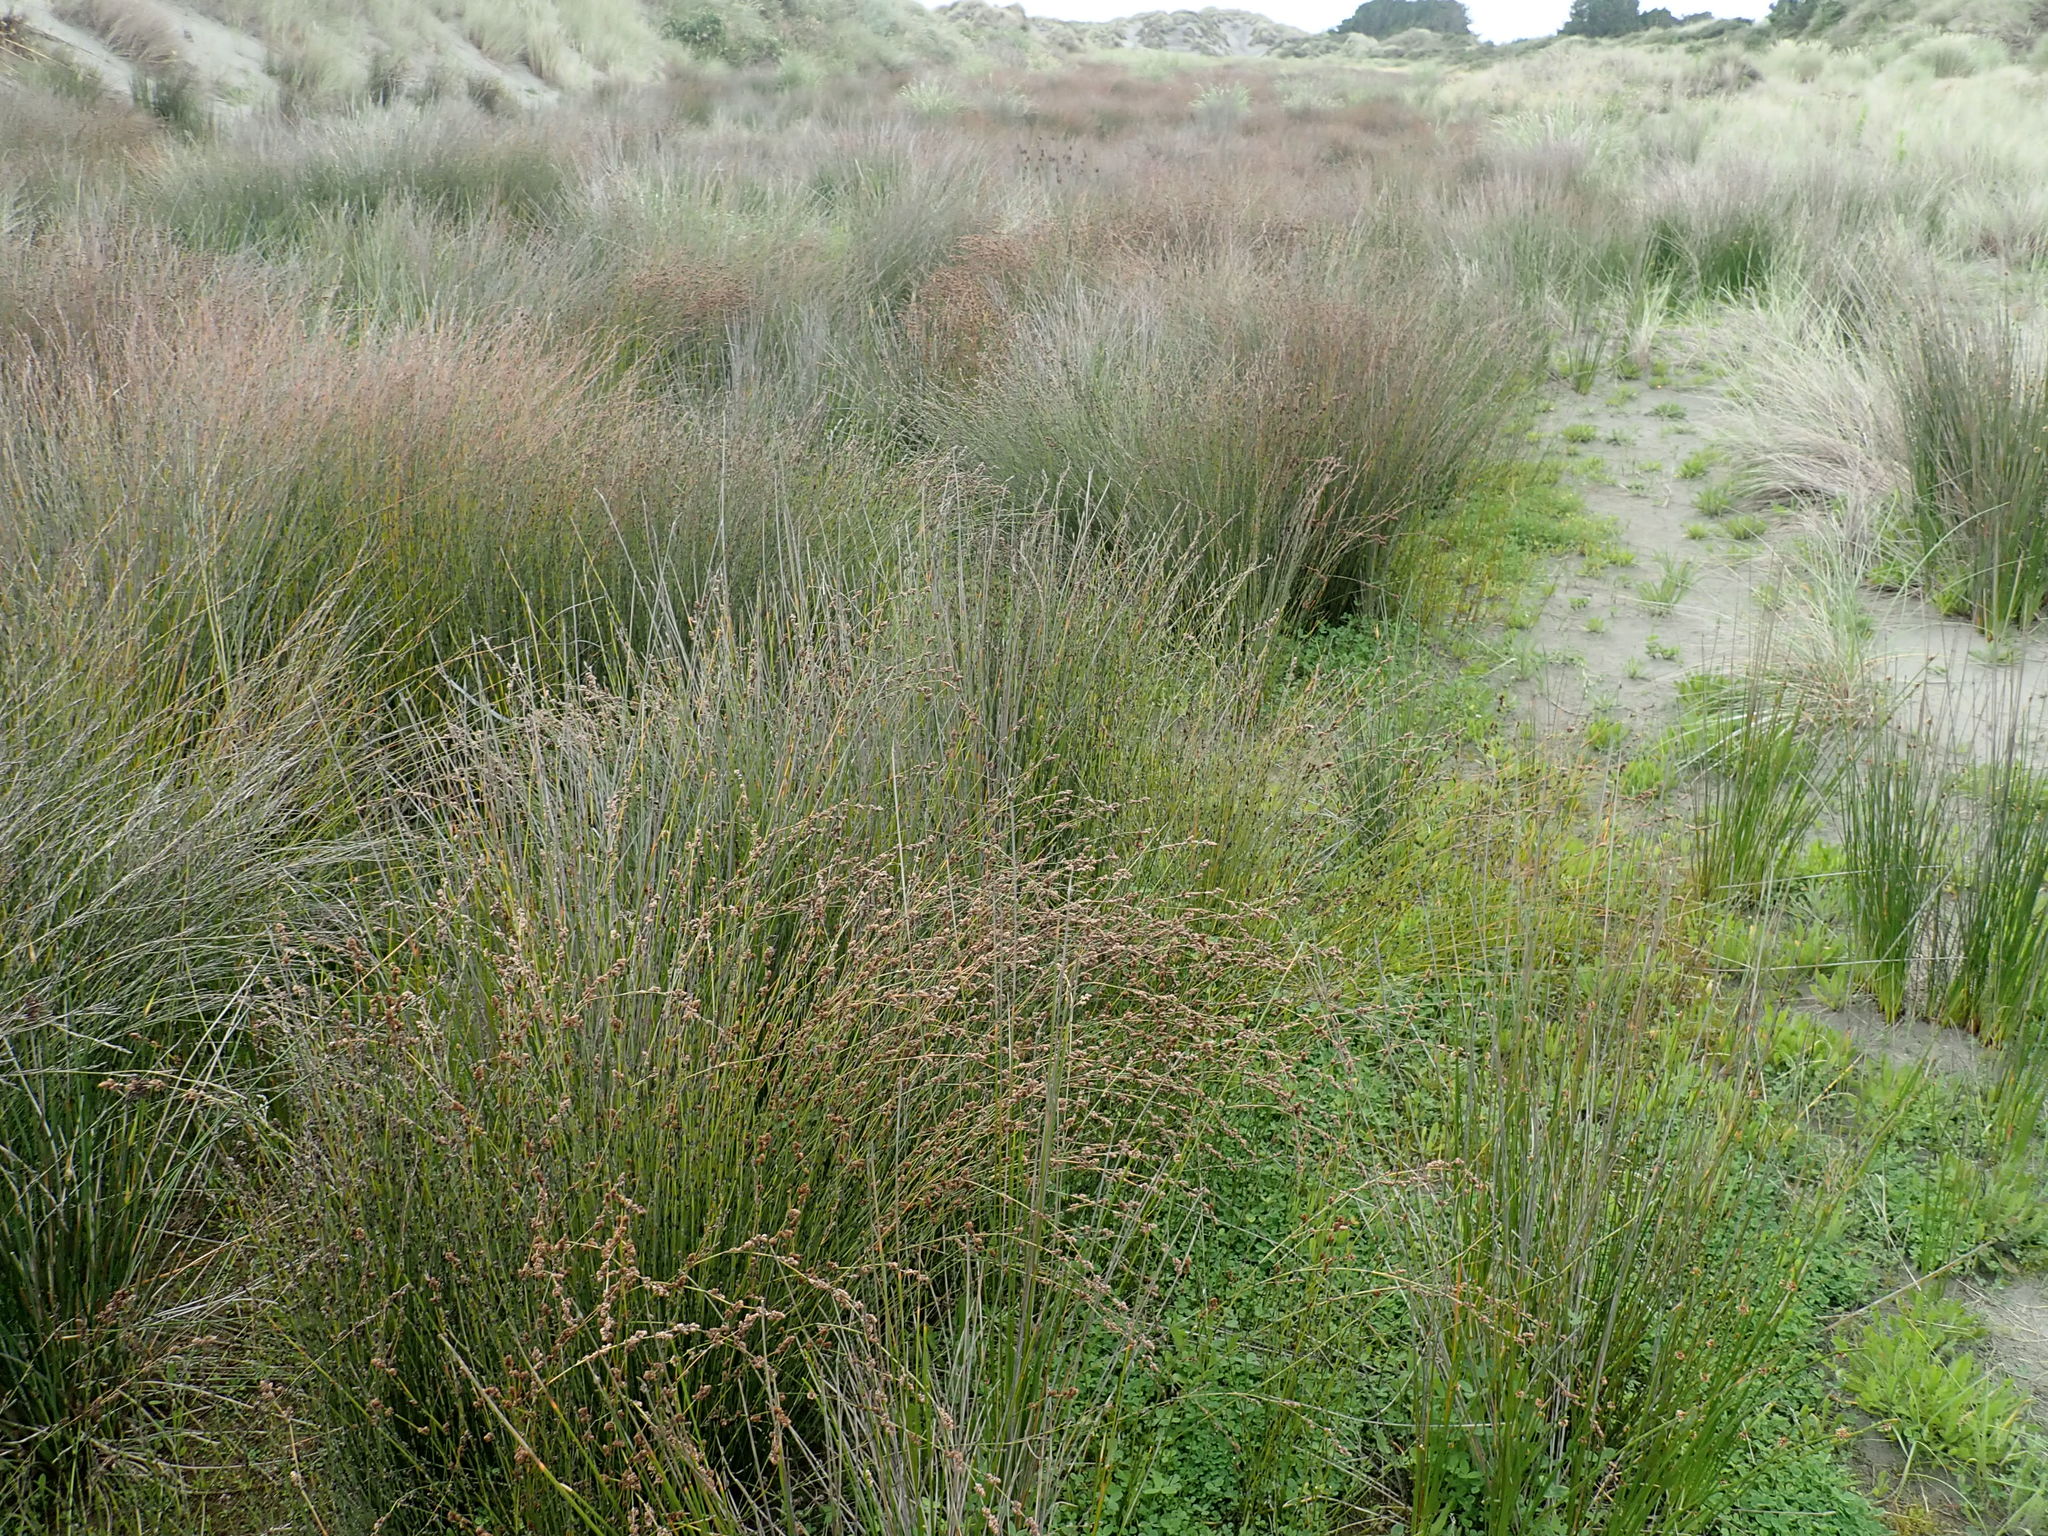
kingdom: Plantae
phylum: Tracheophyta
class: Liliopsida
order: Poales
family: Restionaceae
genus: Apodasmia
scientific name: Apodasmia similis
